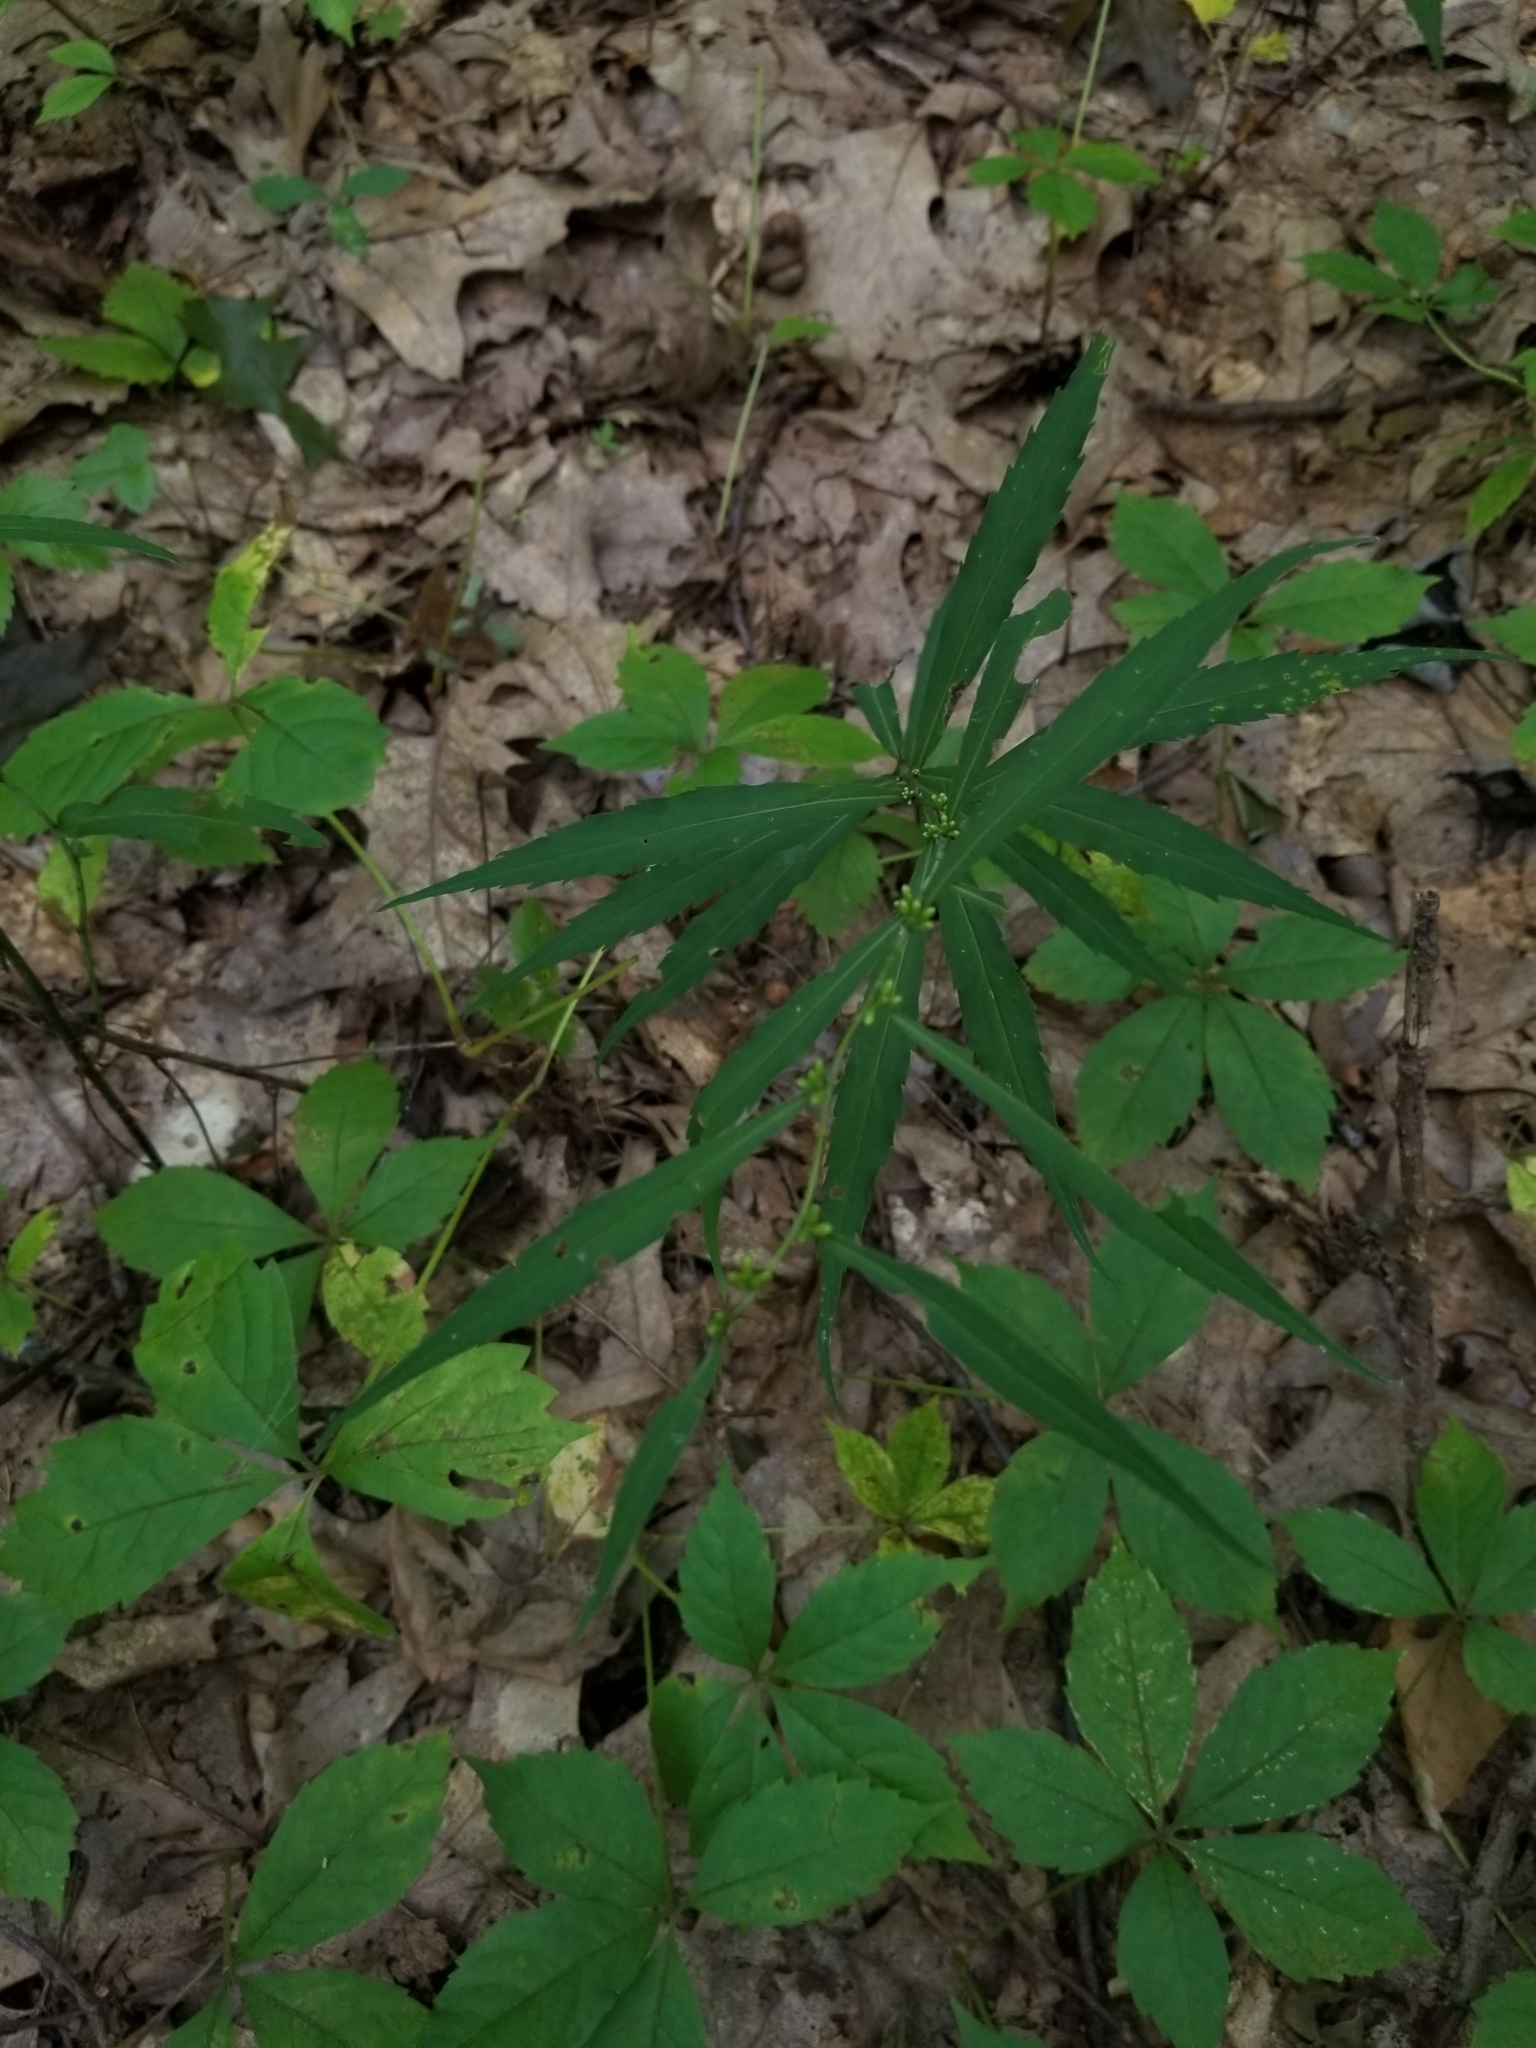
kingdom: Plantae
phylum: Tracheophyta
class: Magnoliopsida
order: Asterales
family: Asteraceae
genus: Solidago
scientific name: Solidago caesia
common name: Woodland goldenrod
